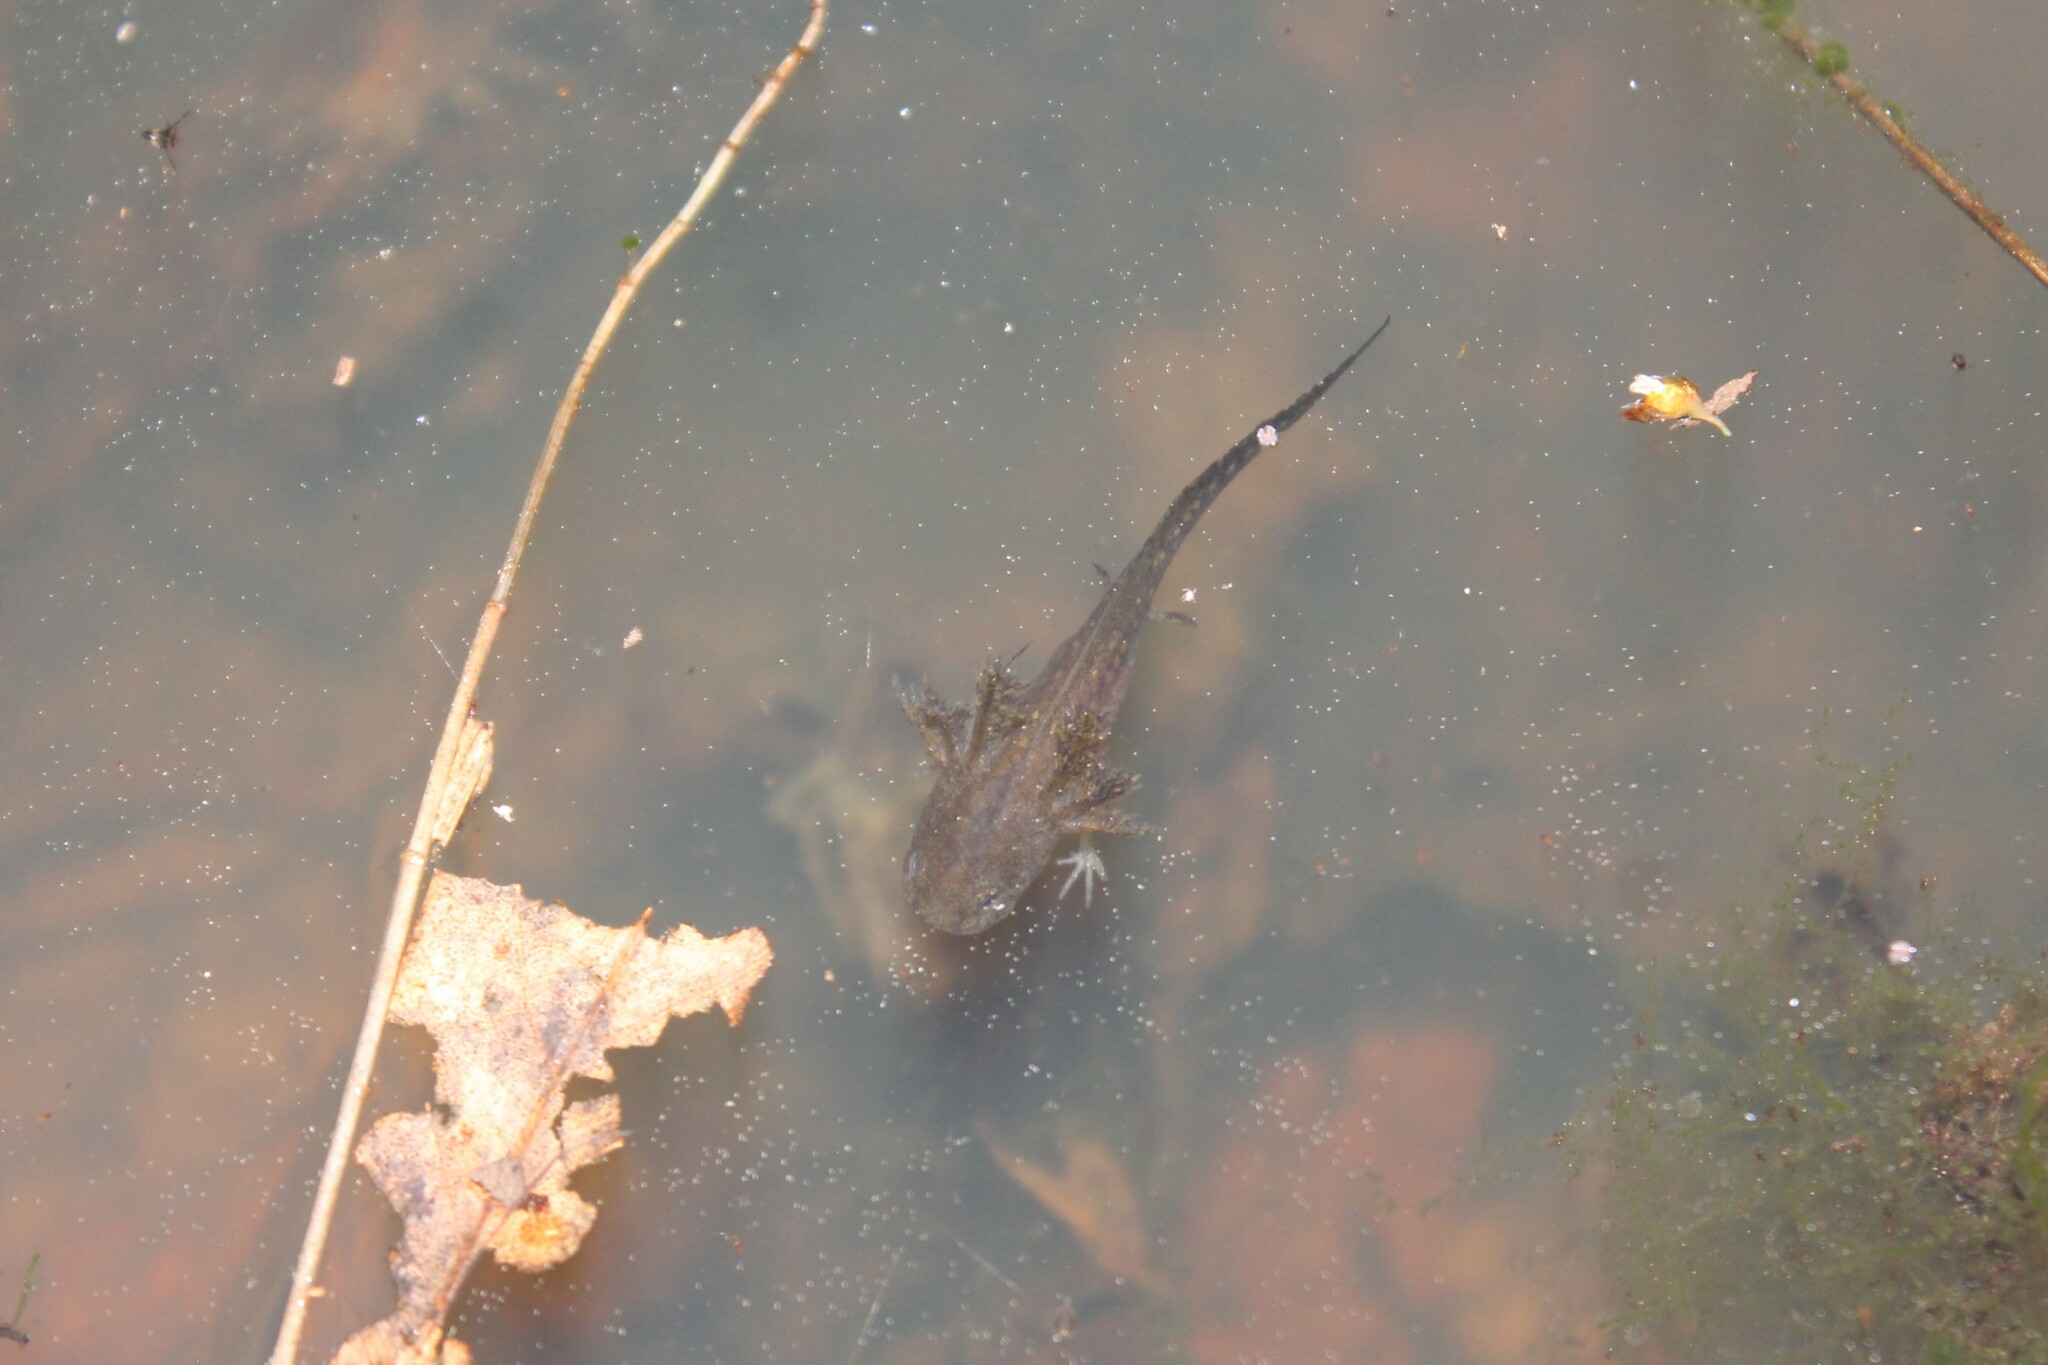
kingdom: Animalia
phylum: Chordata
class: Amphibia
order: Caudata
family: Ambystomatidae
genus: Ambystoma
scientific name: Ambystoma opacum
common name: Marbled salamander
